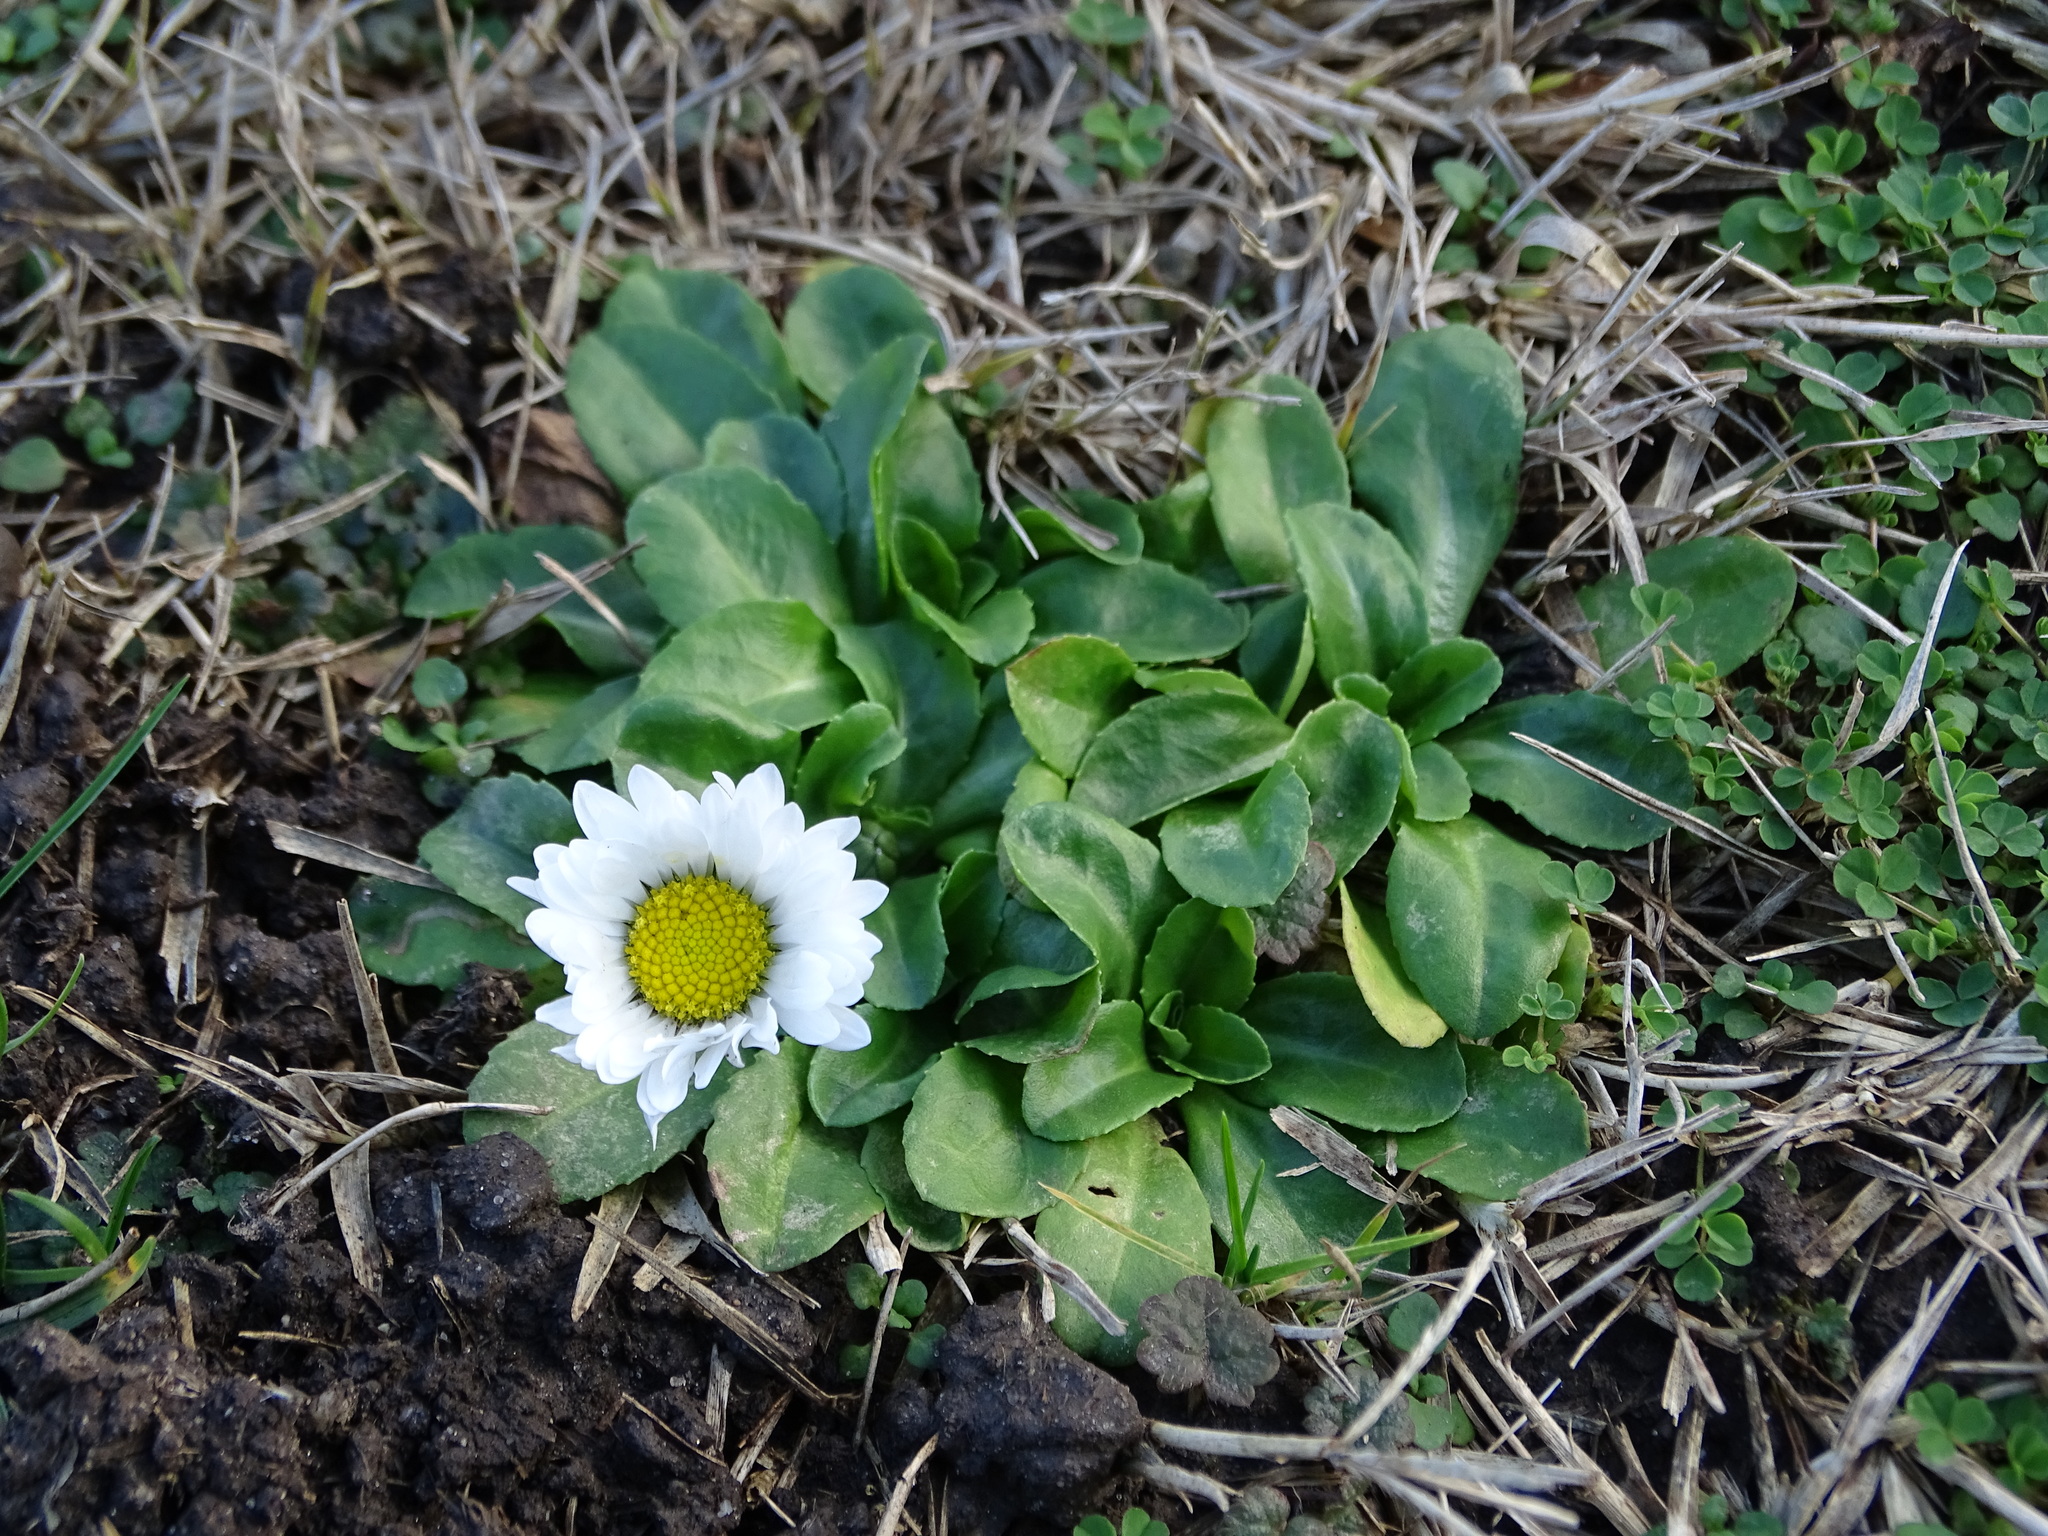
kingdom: Plantae
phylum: Tracheophyta
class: Magnoliopsida
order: Asterales
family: Asteraceae
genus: Bellis
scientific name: Bellis perennis
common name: Lawndaisy
